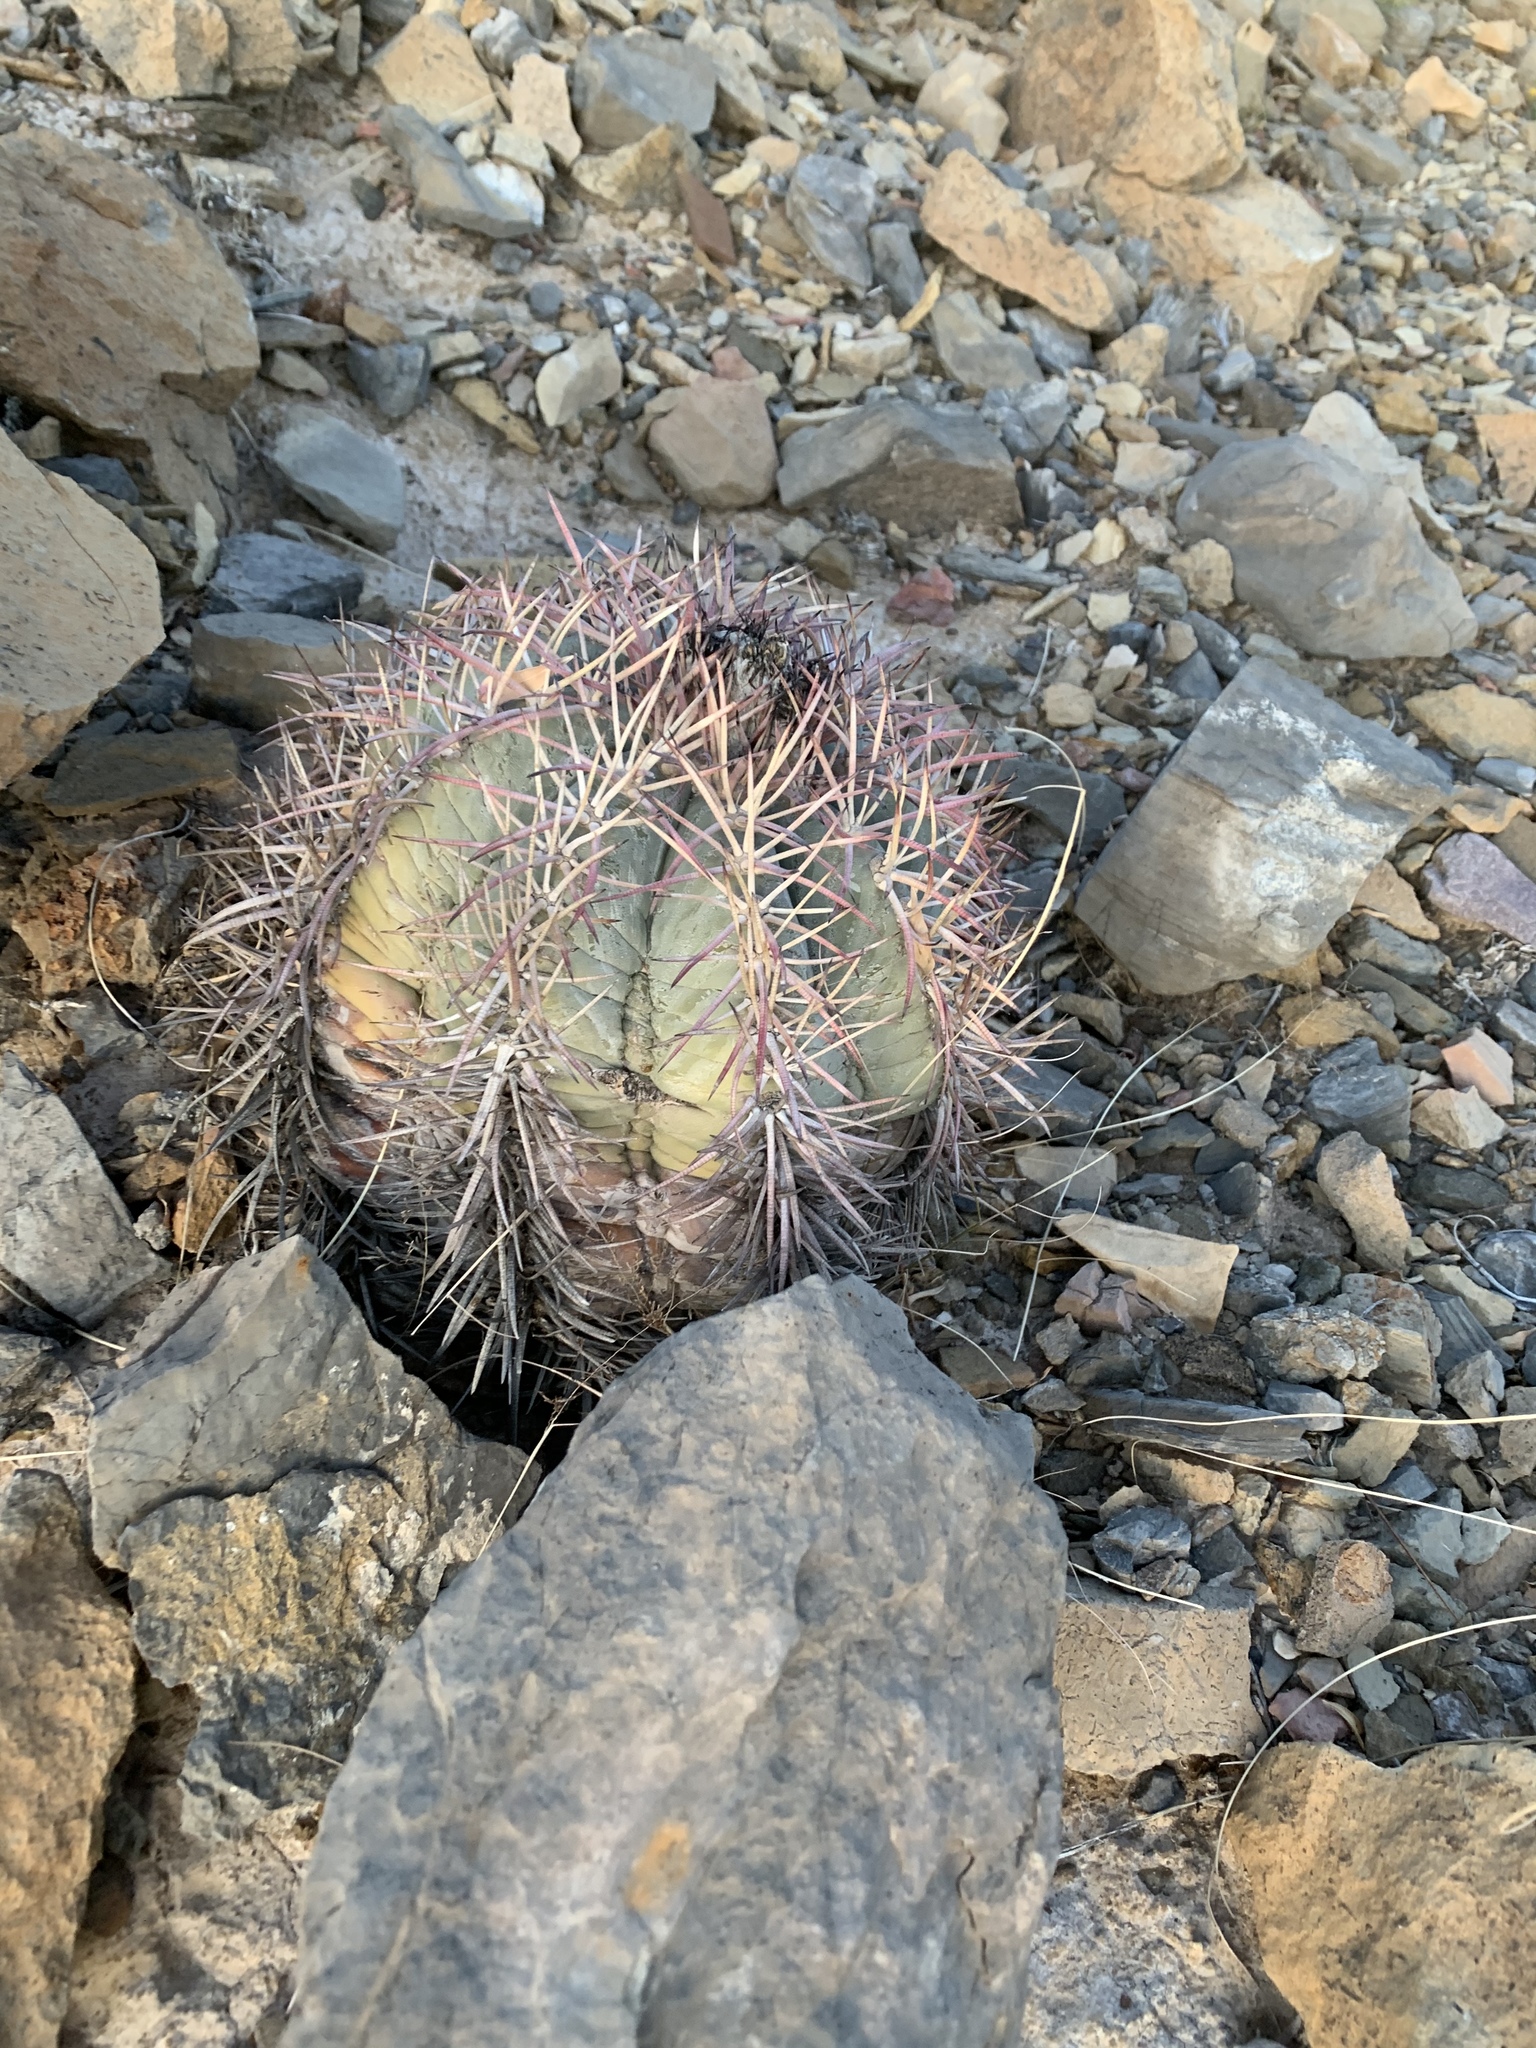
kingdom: Plantae
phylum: Tracheophyta
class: Magnoliopsida
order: Caryophyllales
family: Cactaceae
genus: Echinocactus
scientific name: Echinocactus horizonthalonius
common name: Devilshead
